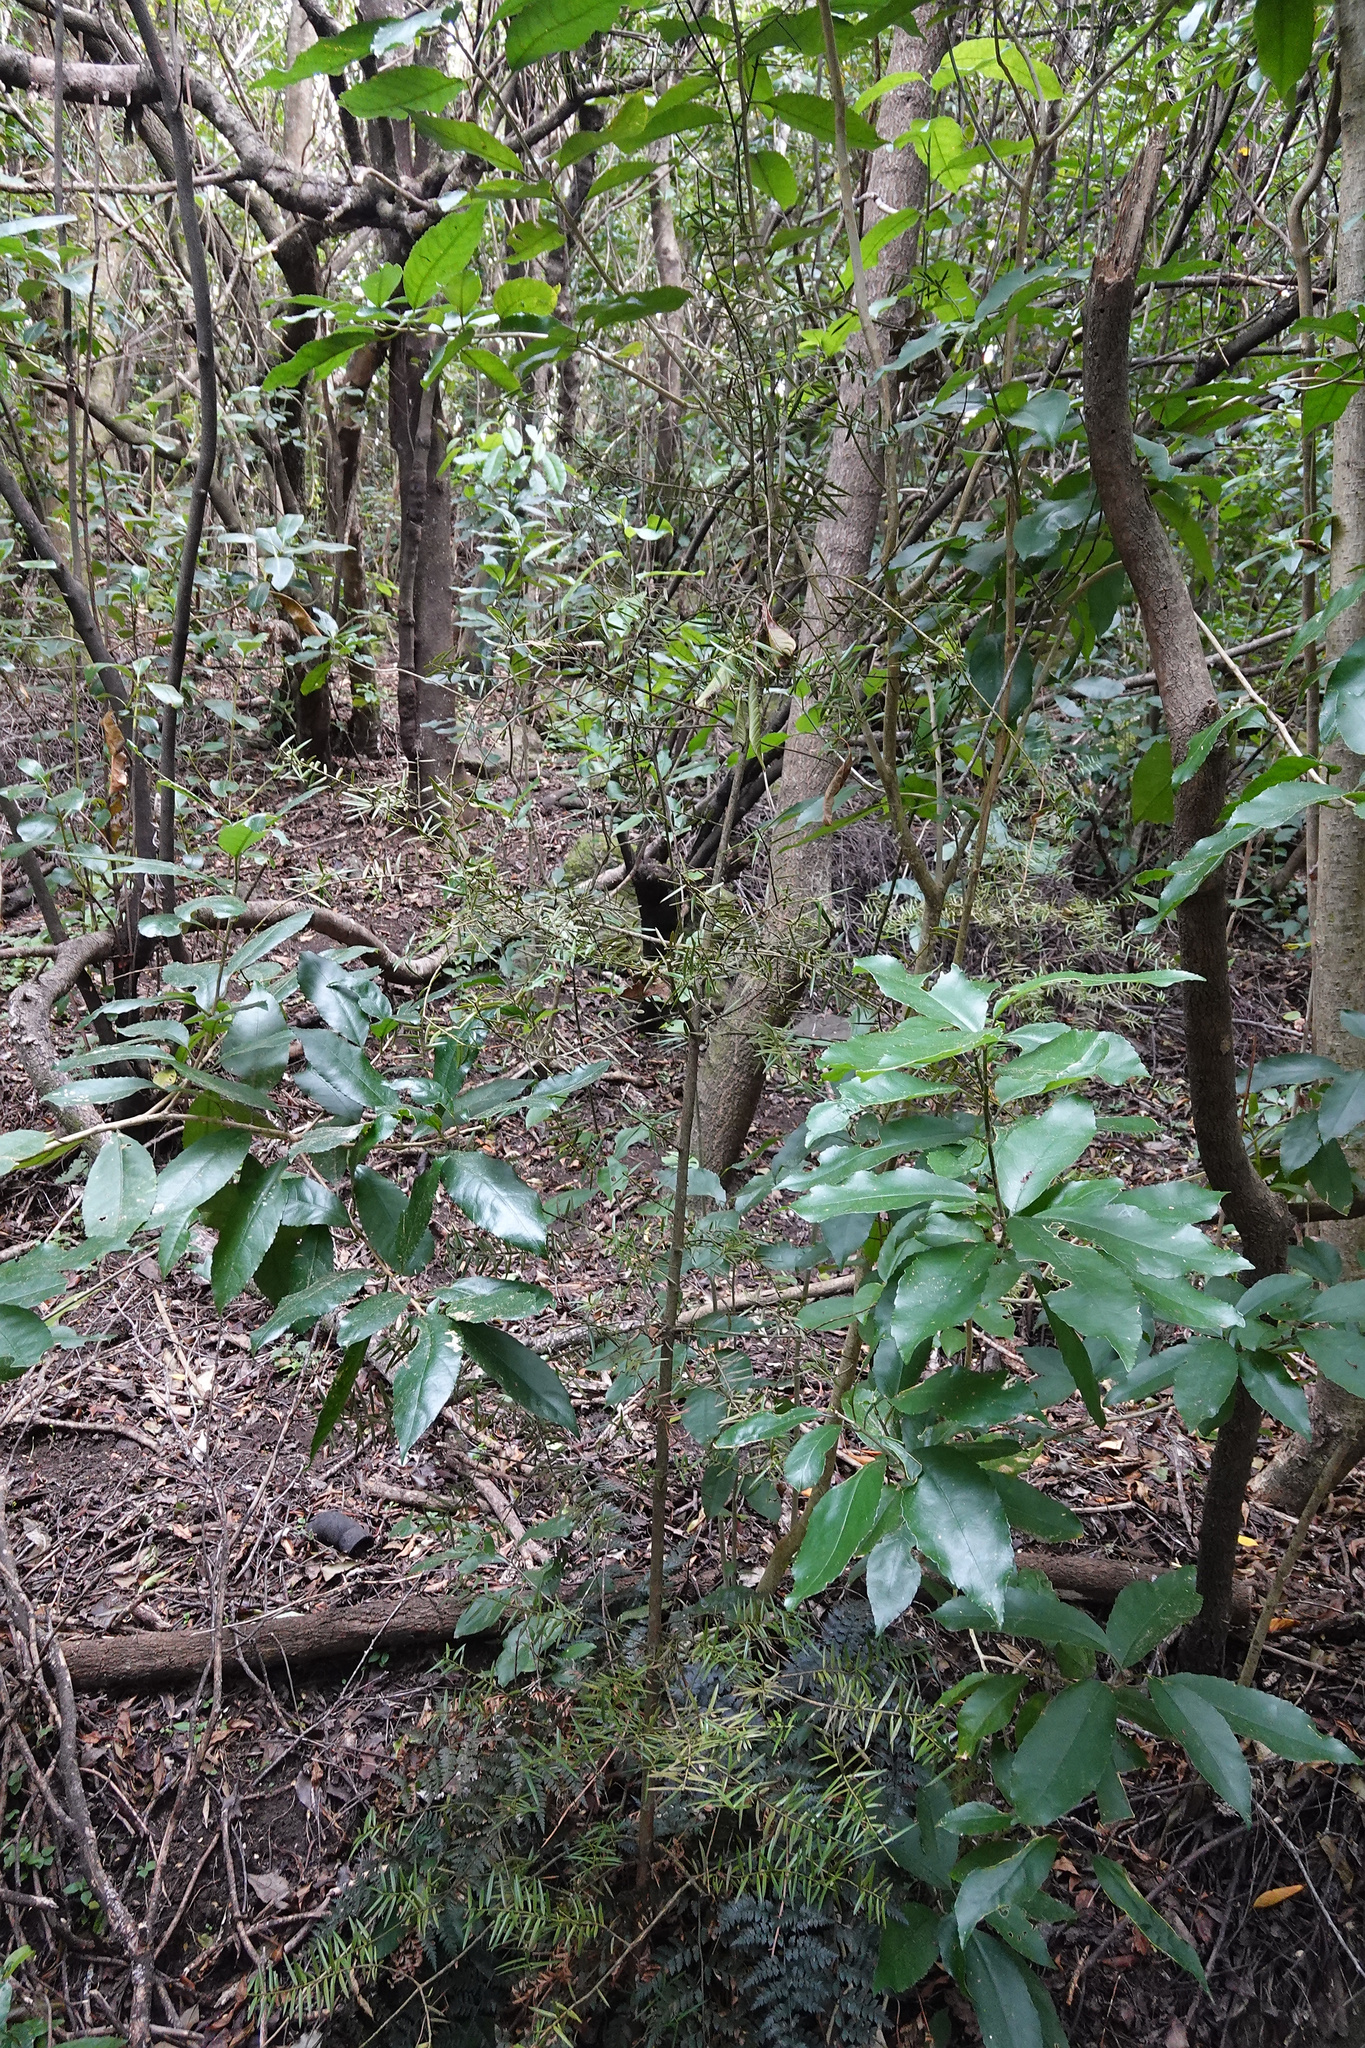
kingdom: Plantae
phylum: Tracheophyta
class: Pinopsida
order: Pinales
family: Podocarpaceae
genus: Podocarpus
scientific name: Podocarpus totara
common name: Totara
